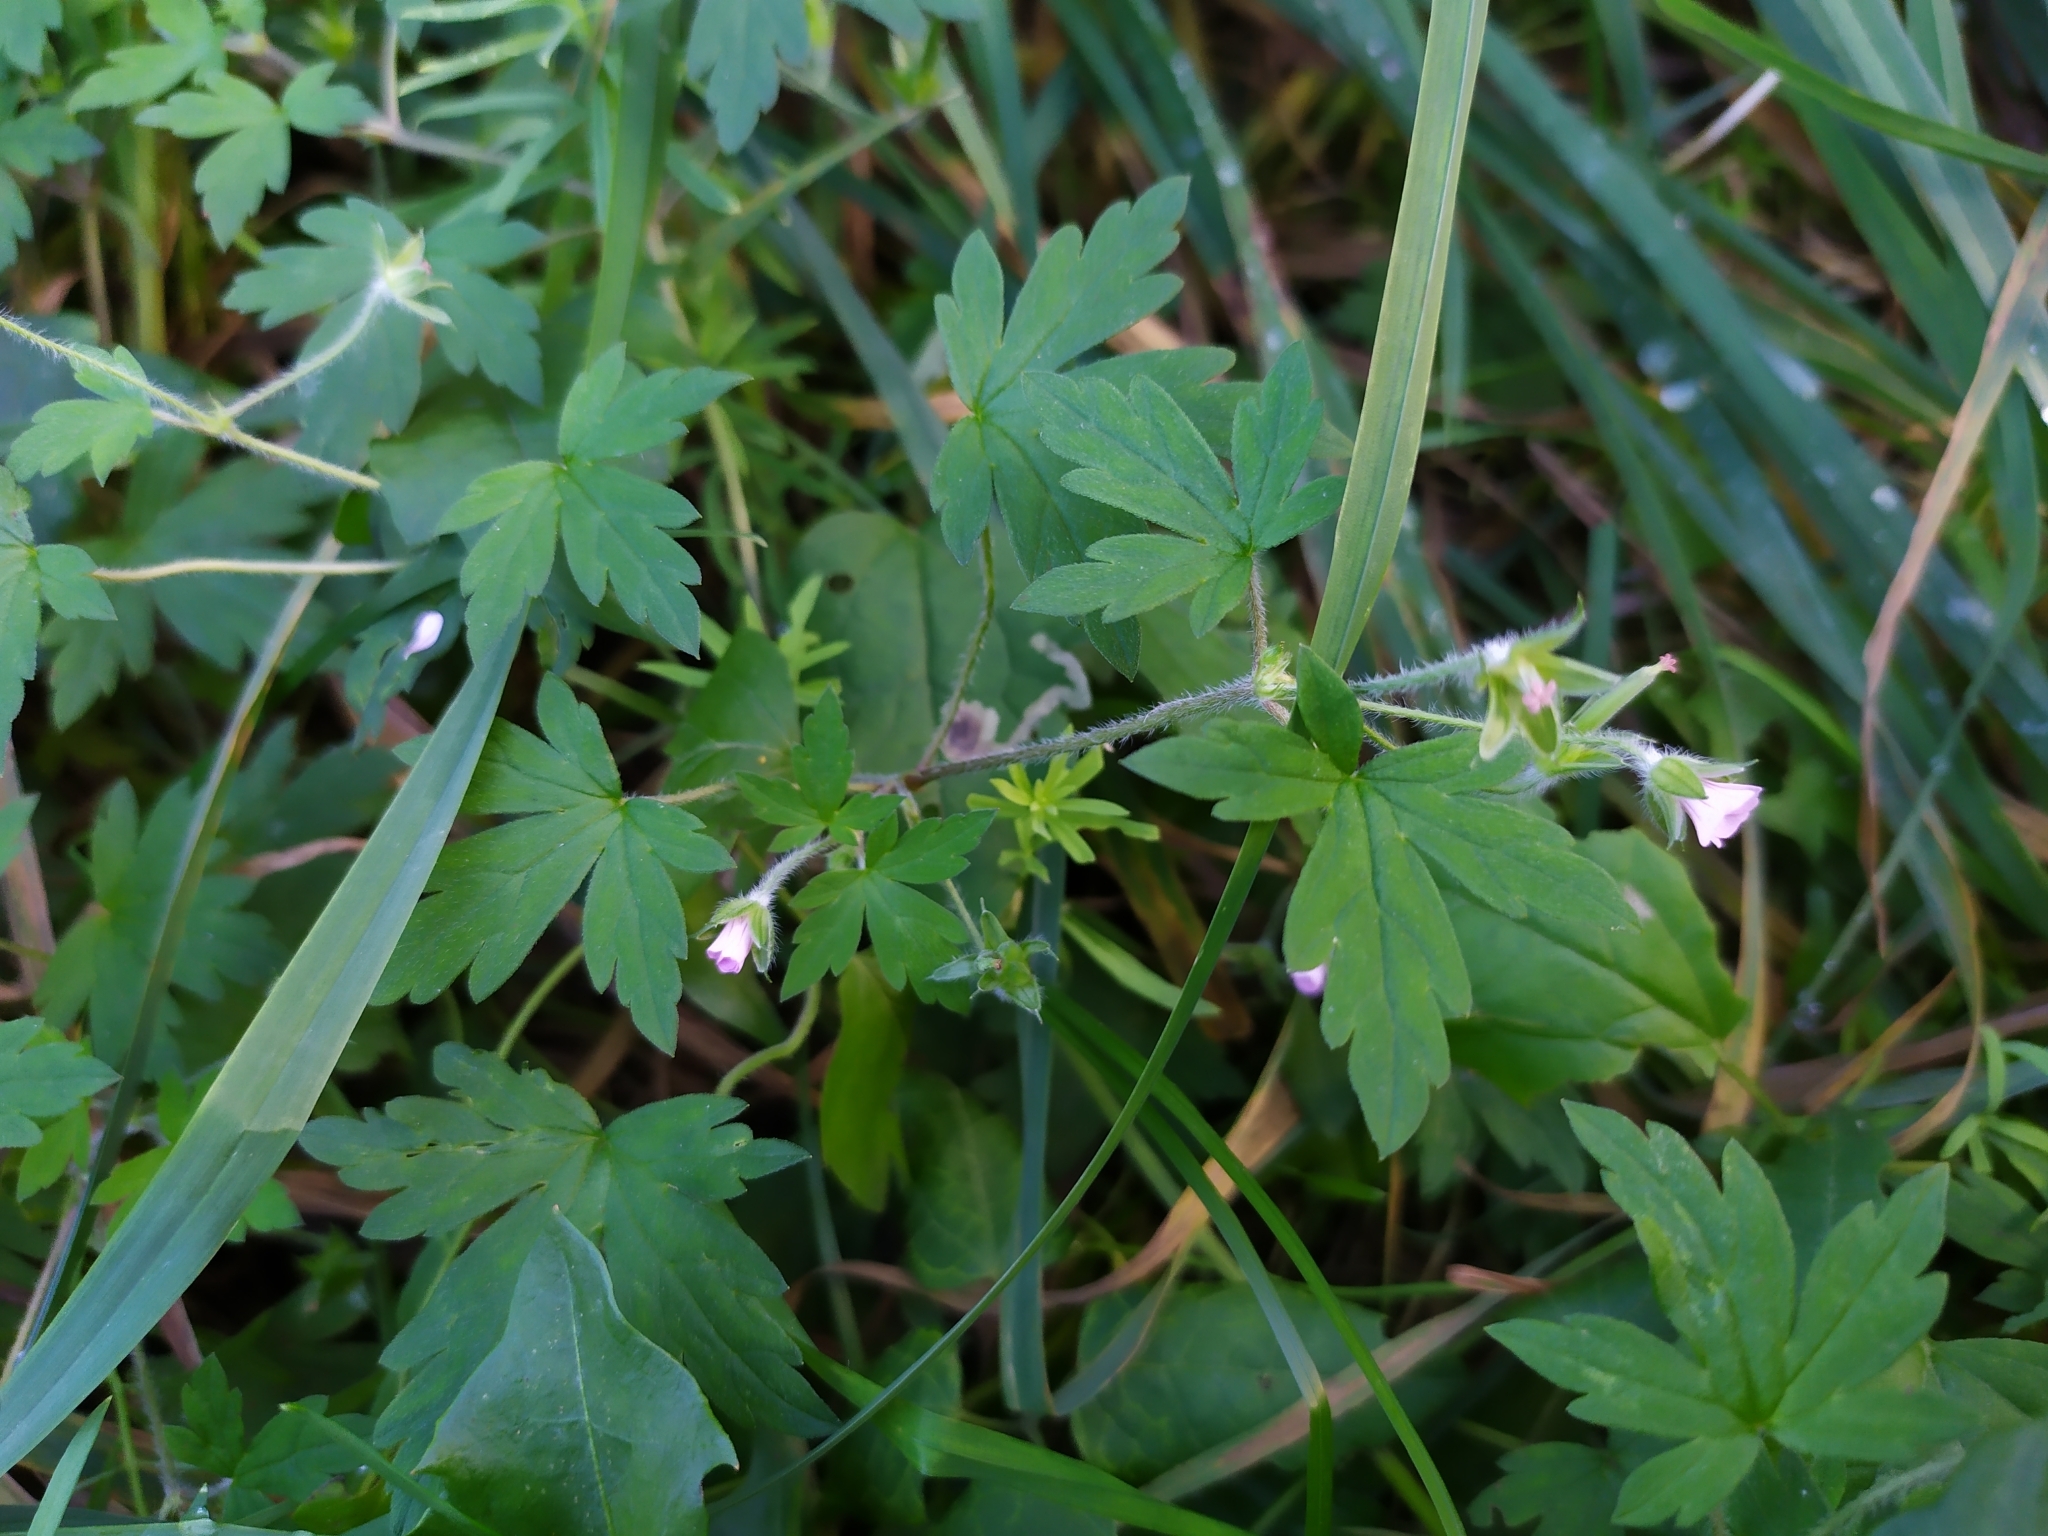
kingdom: Plantae
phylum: Tracheophyta
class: Magnoliopsida
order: Geraniales
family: Geraniaceae
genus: Geranium
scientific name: Geranium sibiricum
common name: Siberian crane's-bill
